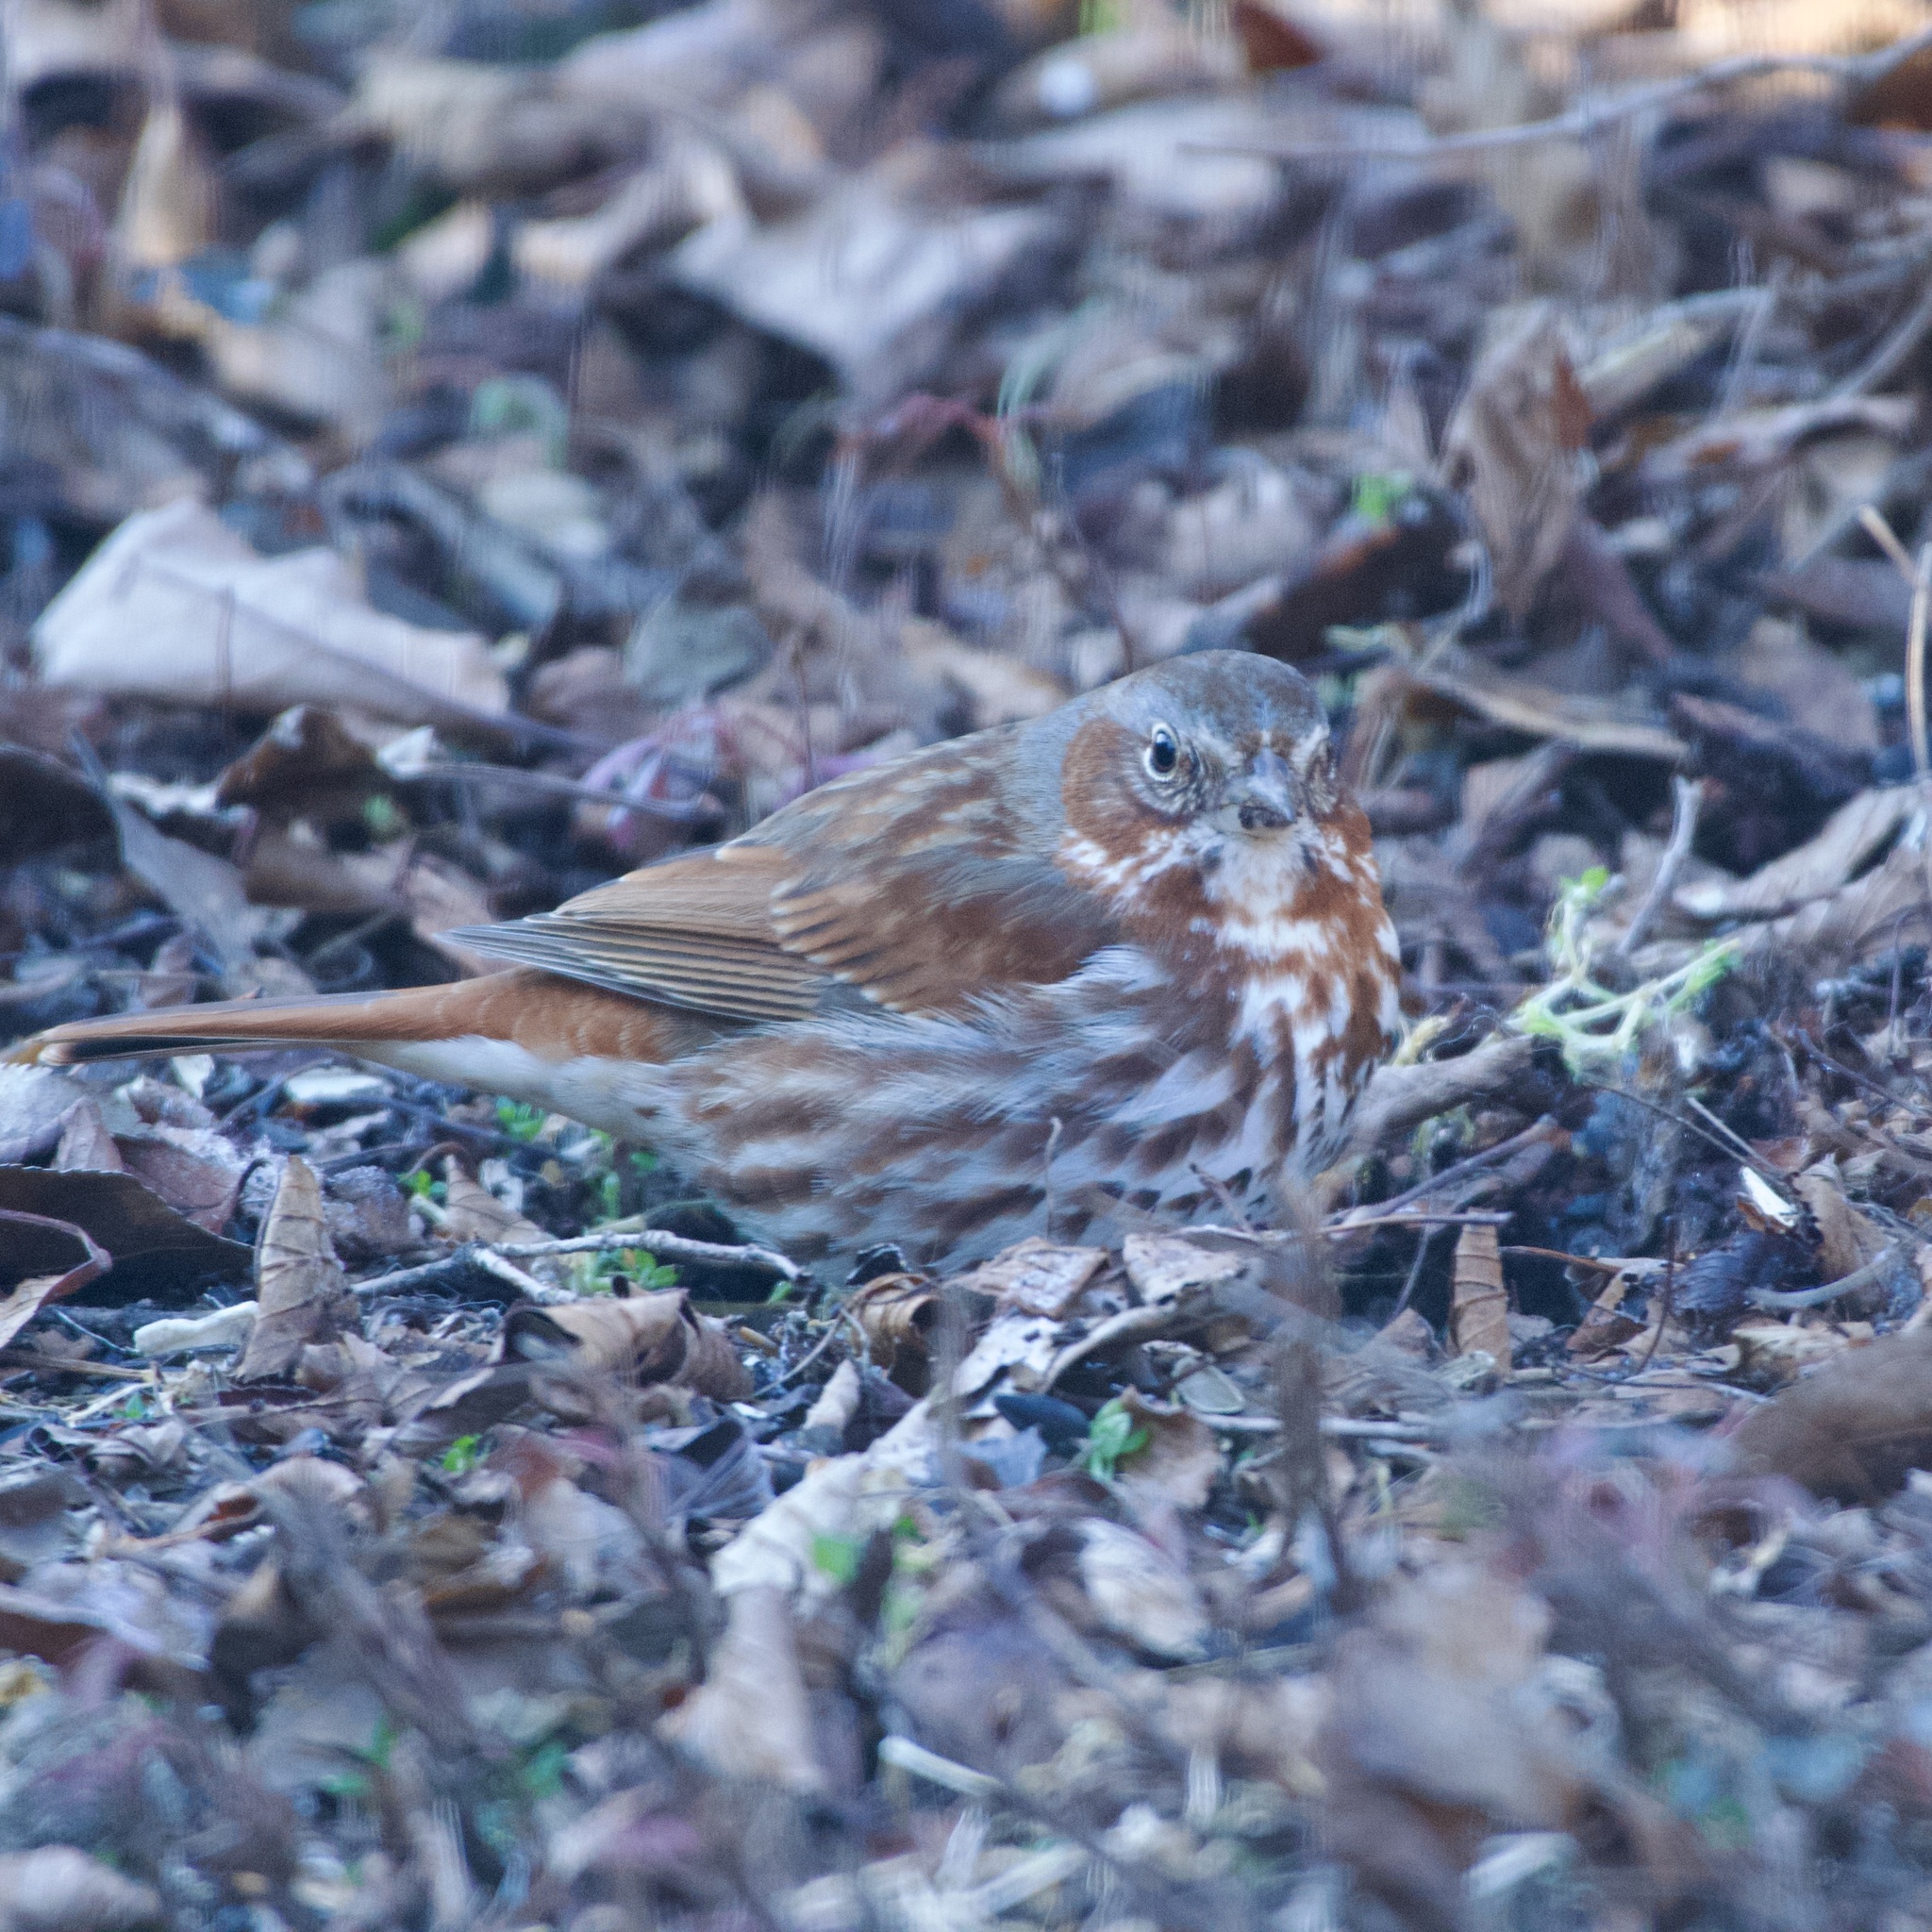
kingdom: Animalia
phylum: Chordata
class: Aves
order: Passeriformes
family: Passerellidae
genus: Passerella
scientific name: Passerella iliaca
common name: Fox sparrow
